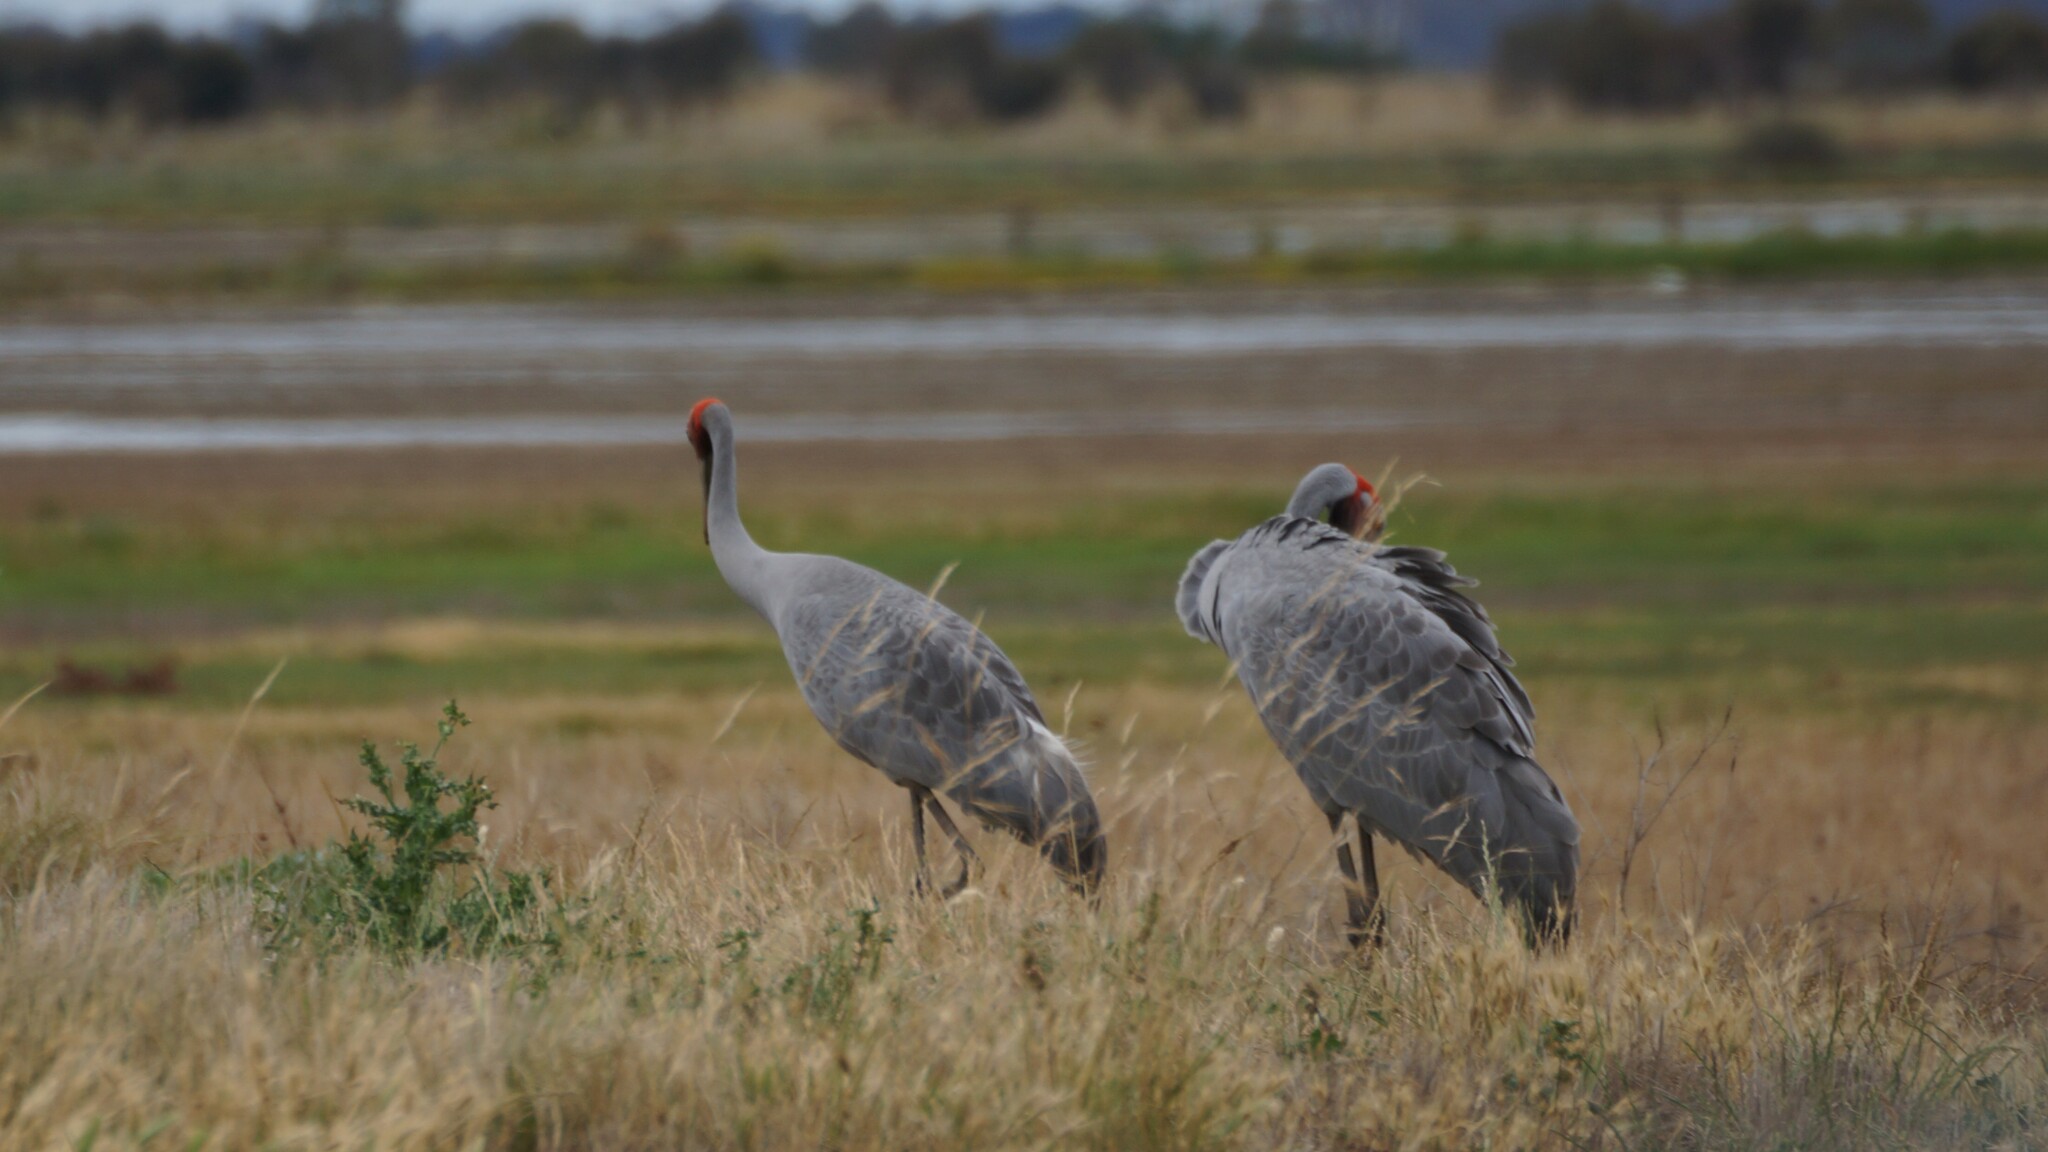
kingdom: Animalia
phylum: Chordata
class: Aves
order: Gruiformes
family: Gruidae
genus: Grus
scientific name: Grus rubicunda
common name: Brolga
